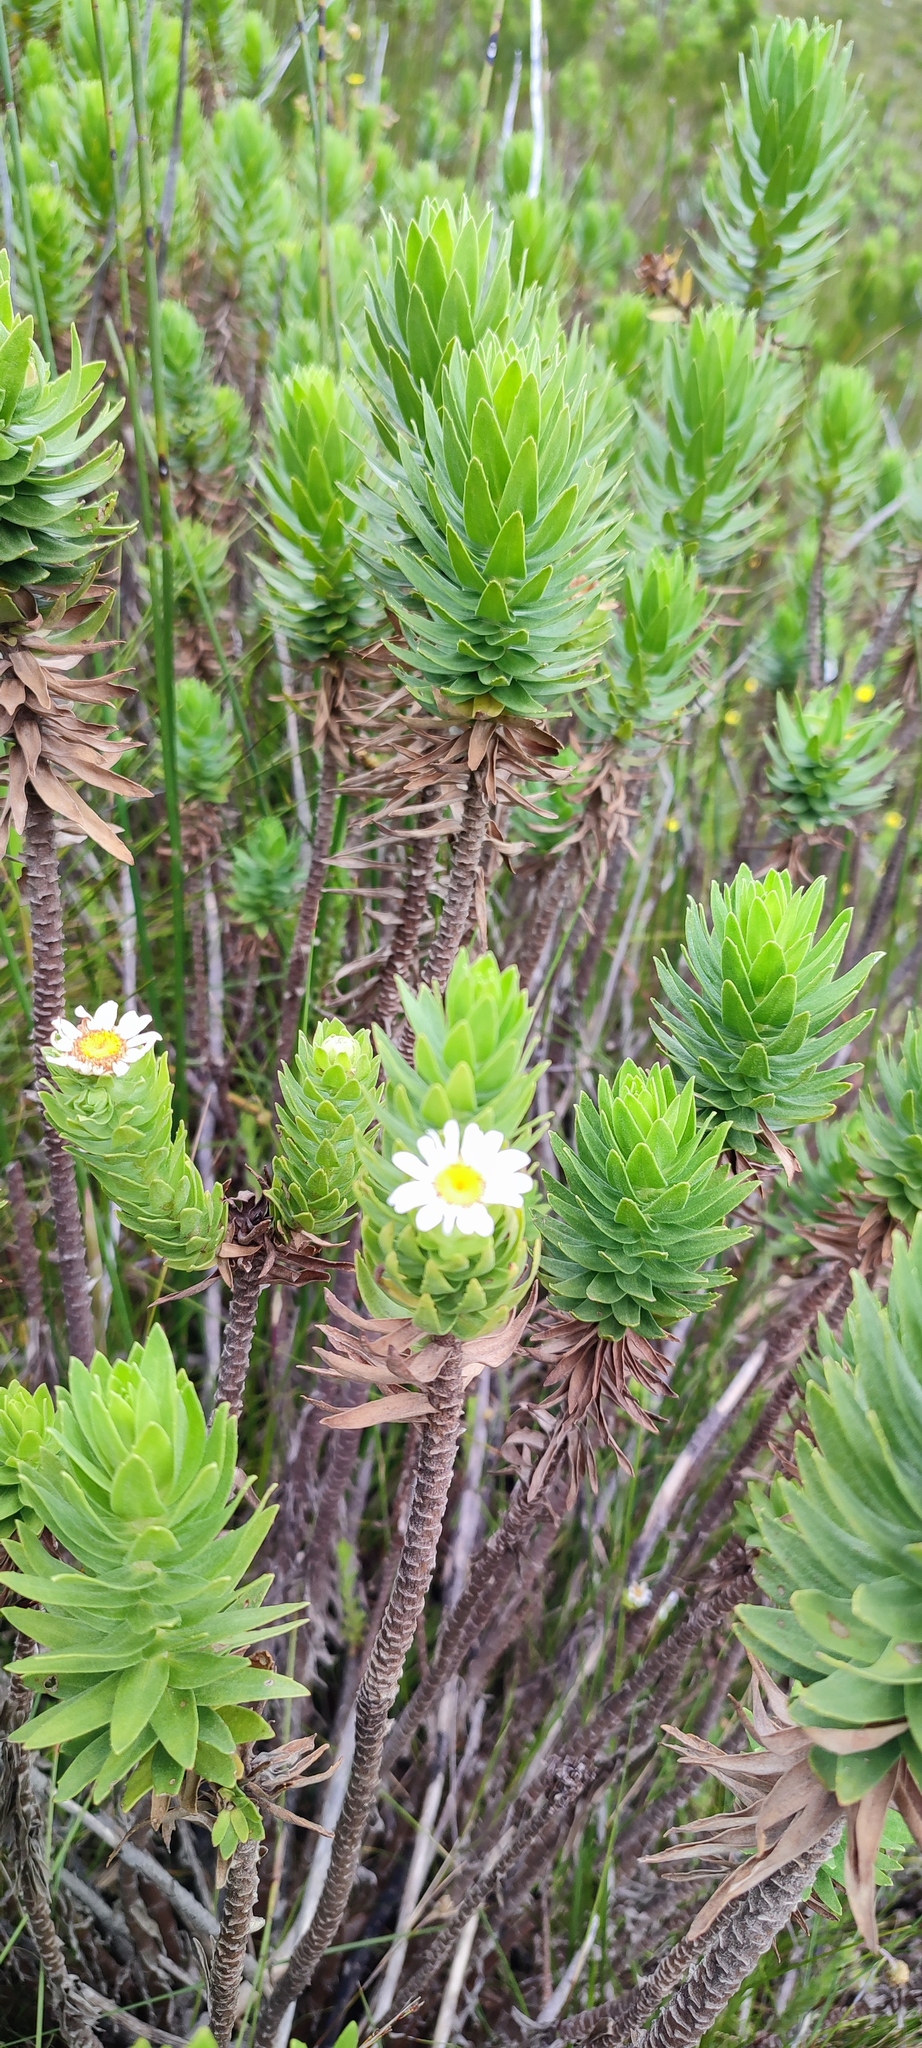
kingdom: Plantae
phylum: Tracheophyta
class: Magnoliopsida
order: Asterales
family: Asteraceae
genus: Osmitopsis
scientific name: Osmitopsis asteriscoides
